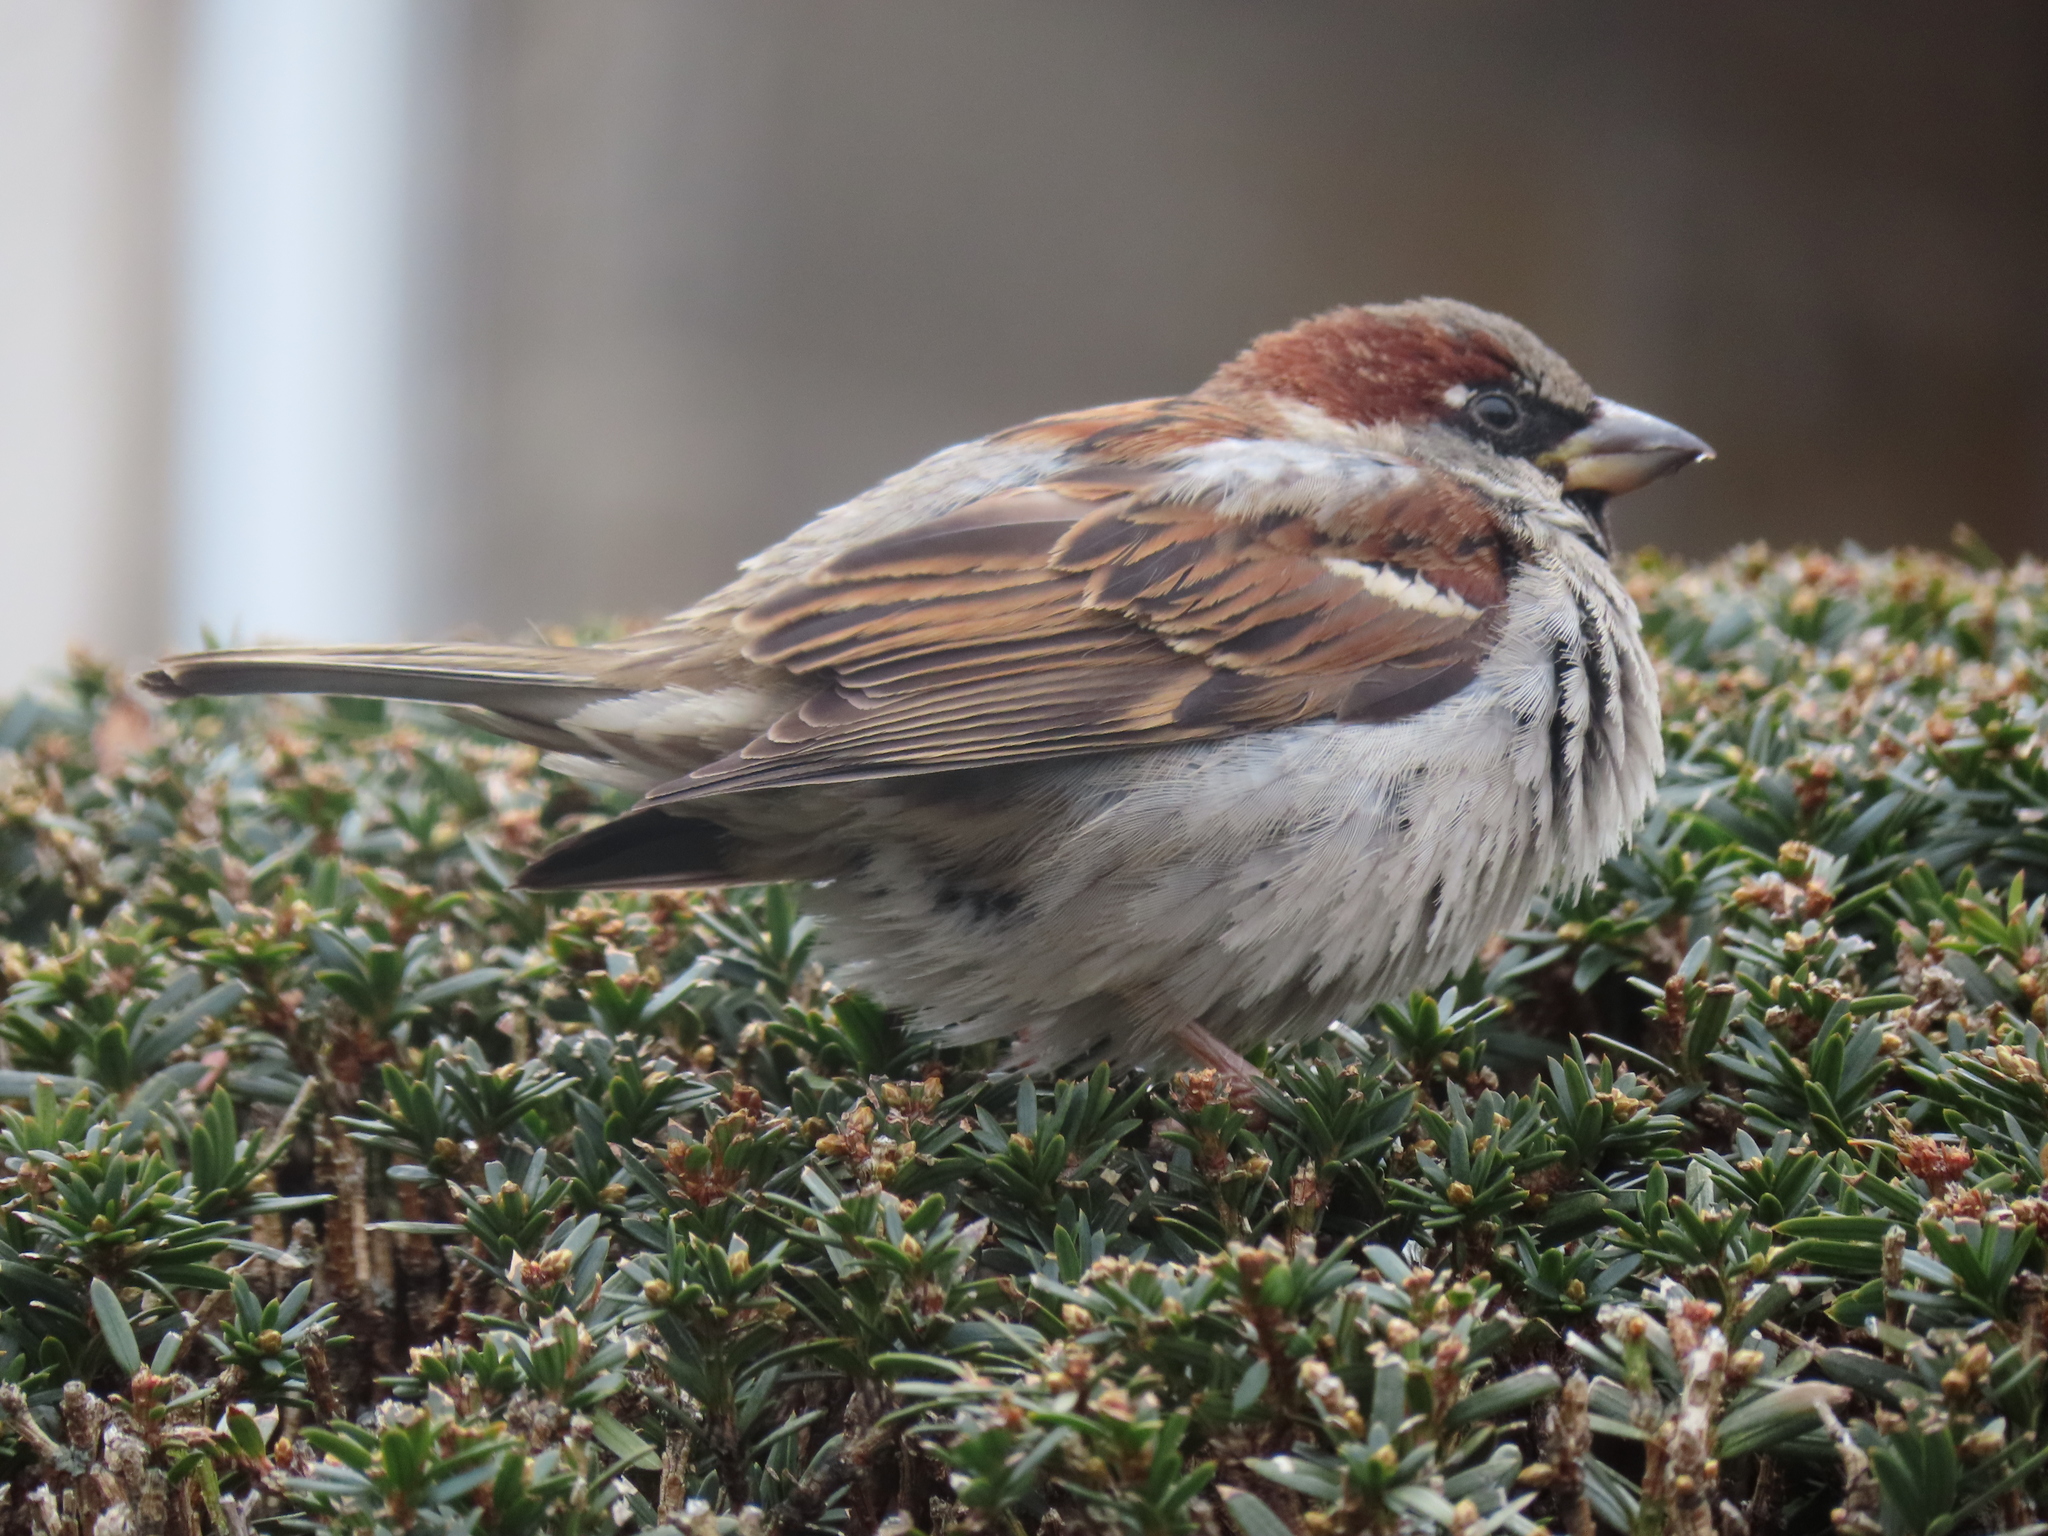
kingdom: Animalia
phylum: Chordata
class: Aves
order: Passeriformes
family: Passeridae
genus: Passer
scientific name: Passer domesticus
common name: House sparrow
